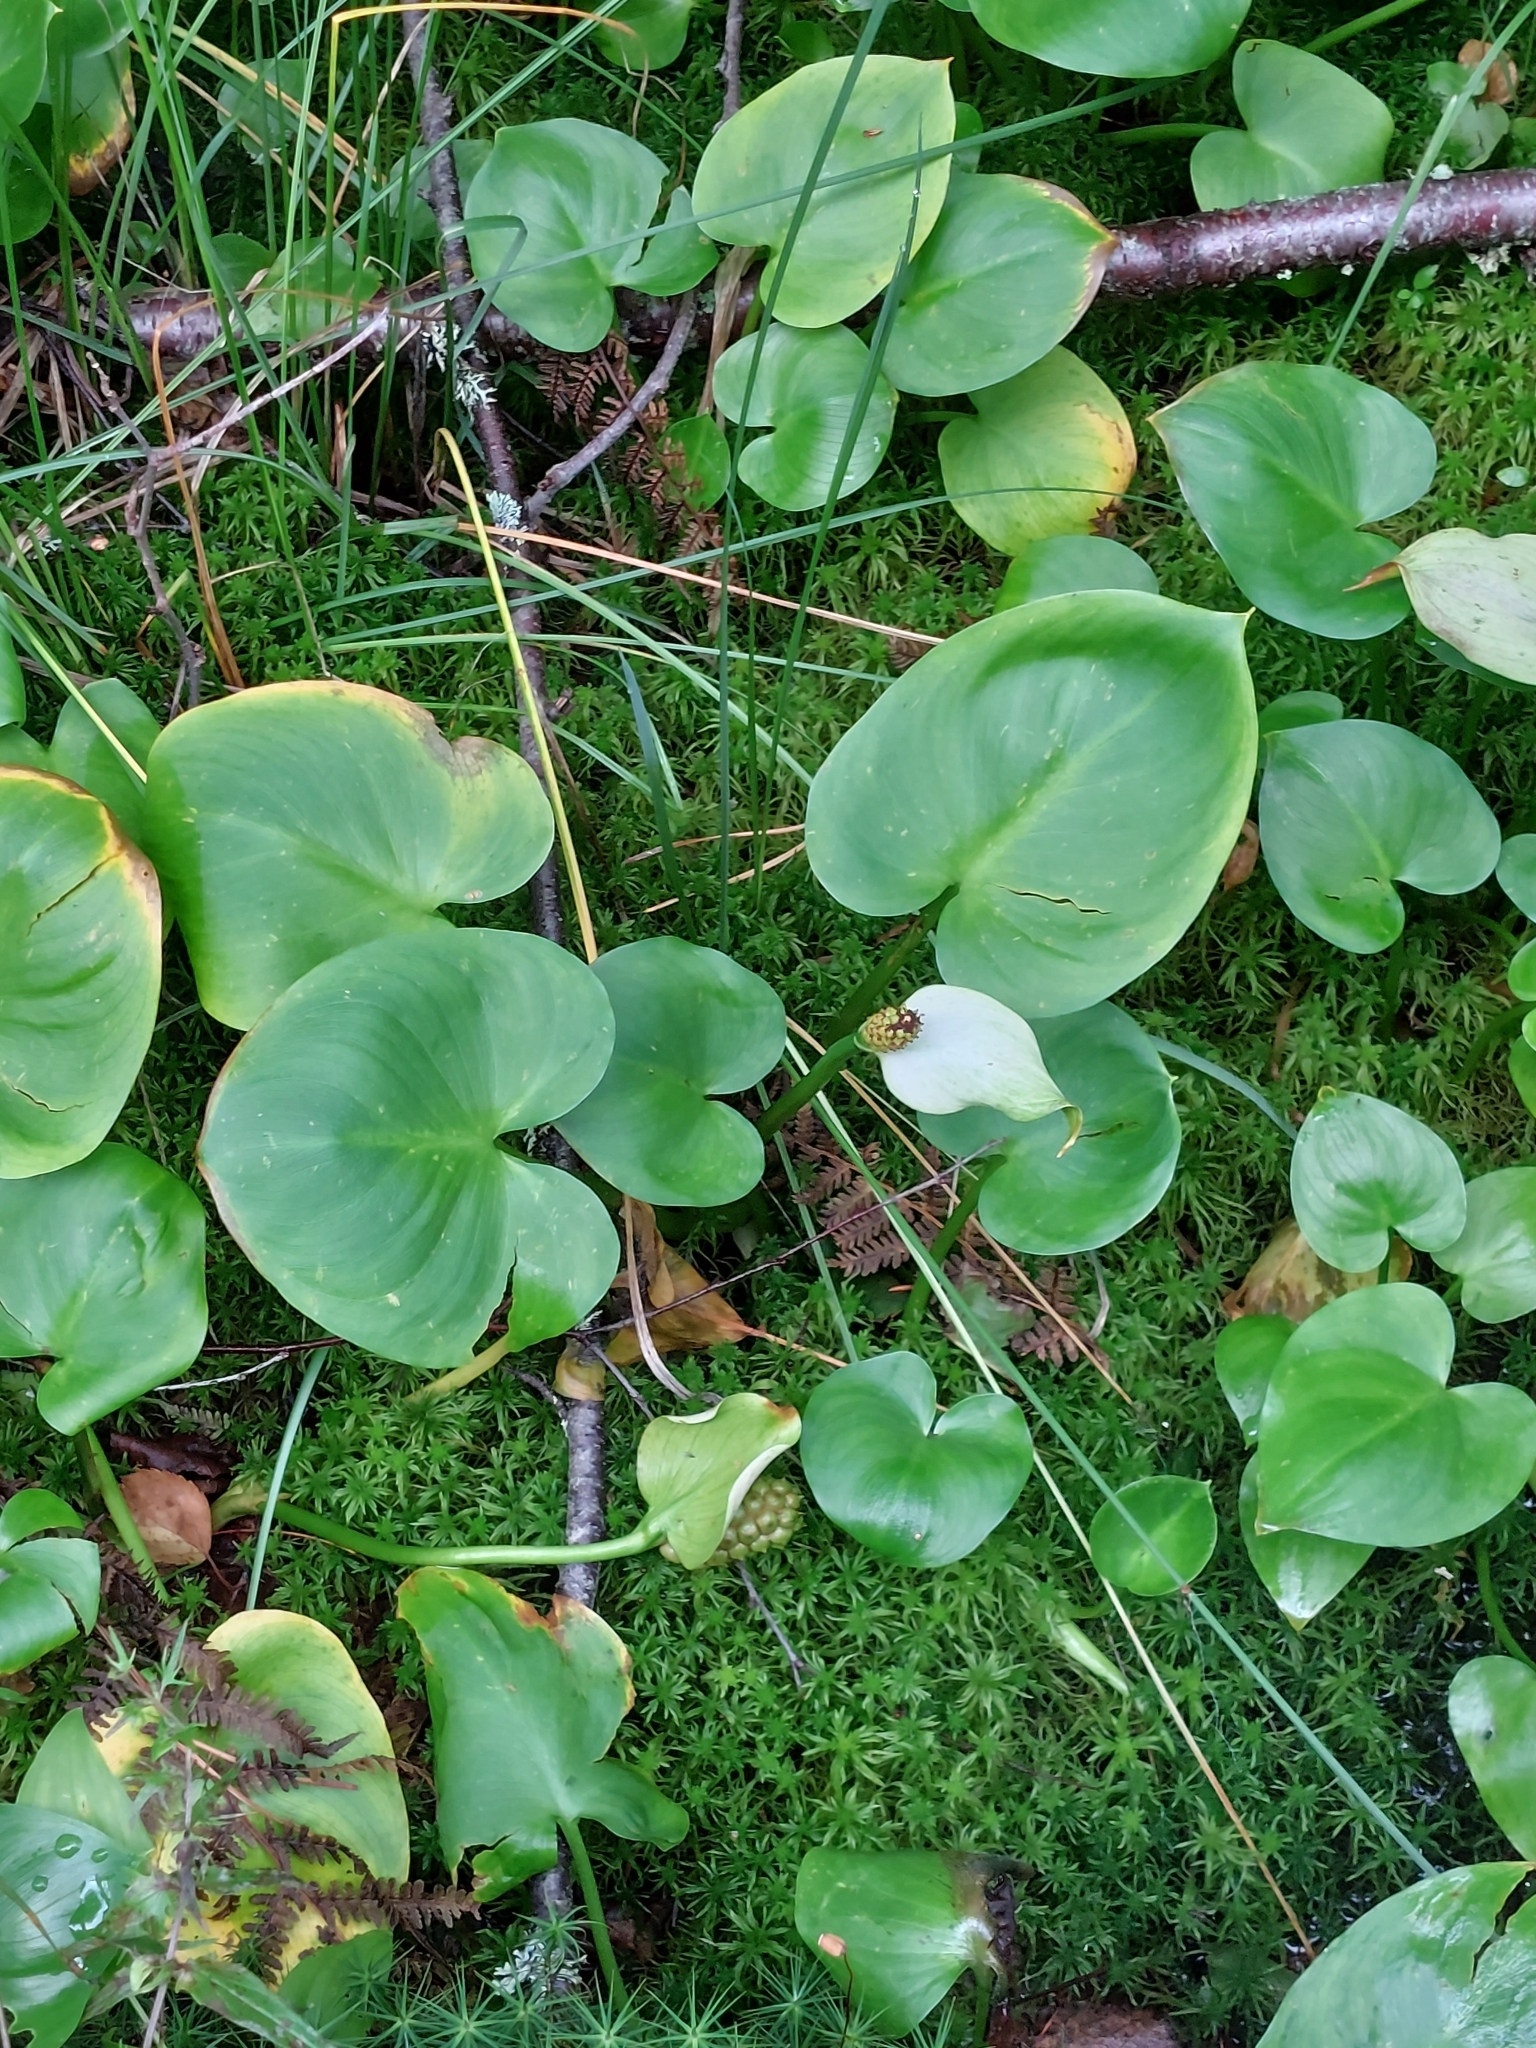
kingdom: Plantae
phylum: Tracheophyta
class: Liliopsida
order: Alismatales
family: Araceae
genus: Calla
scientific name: Calla palustris
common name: Bog arum
